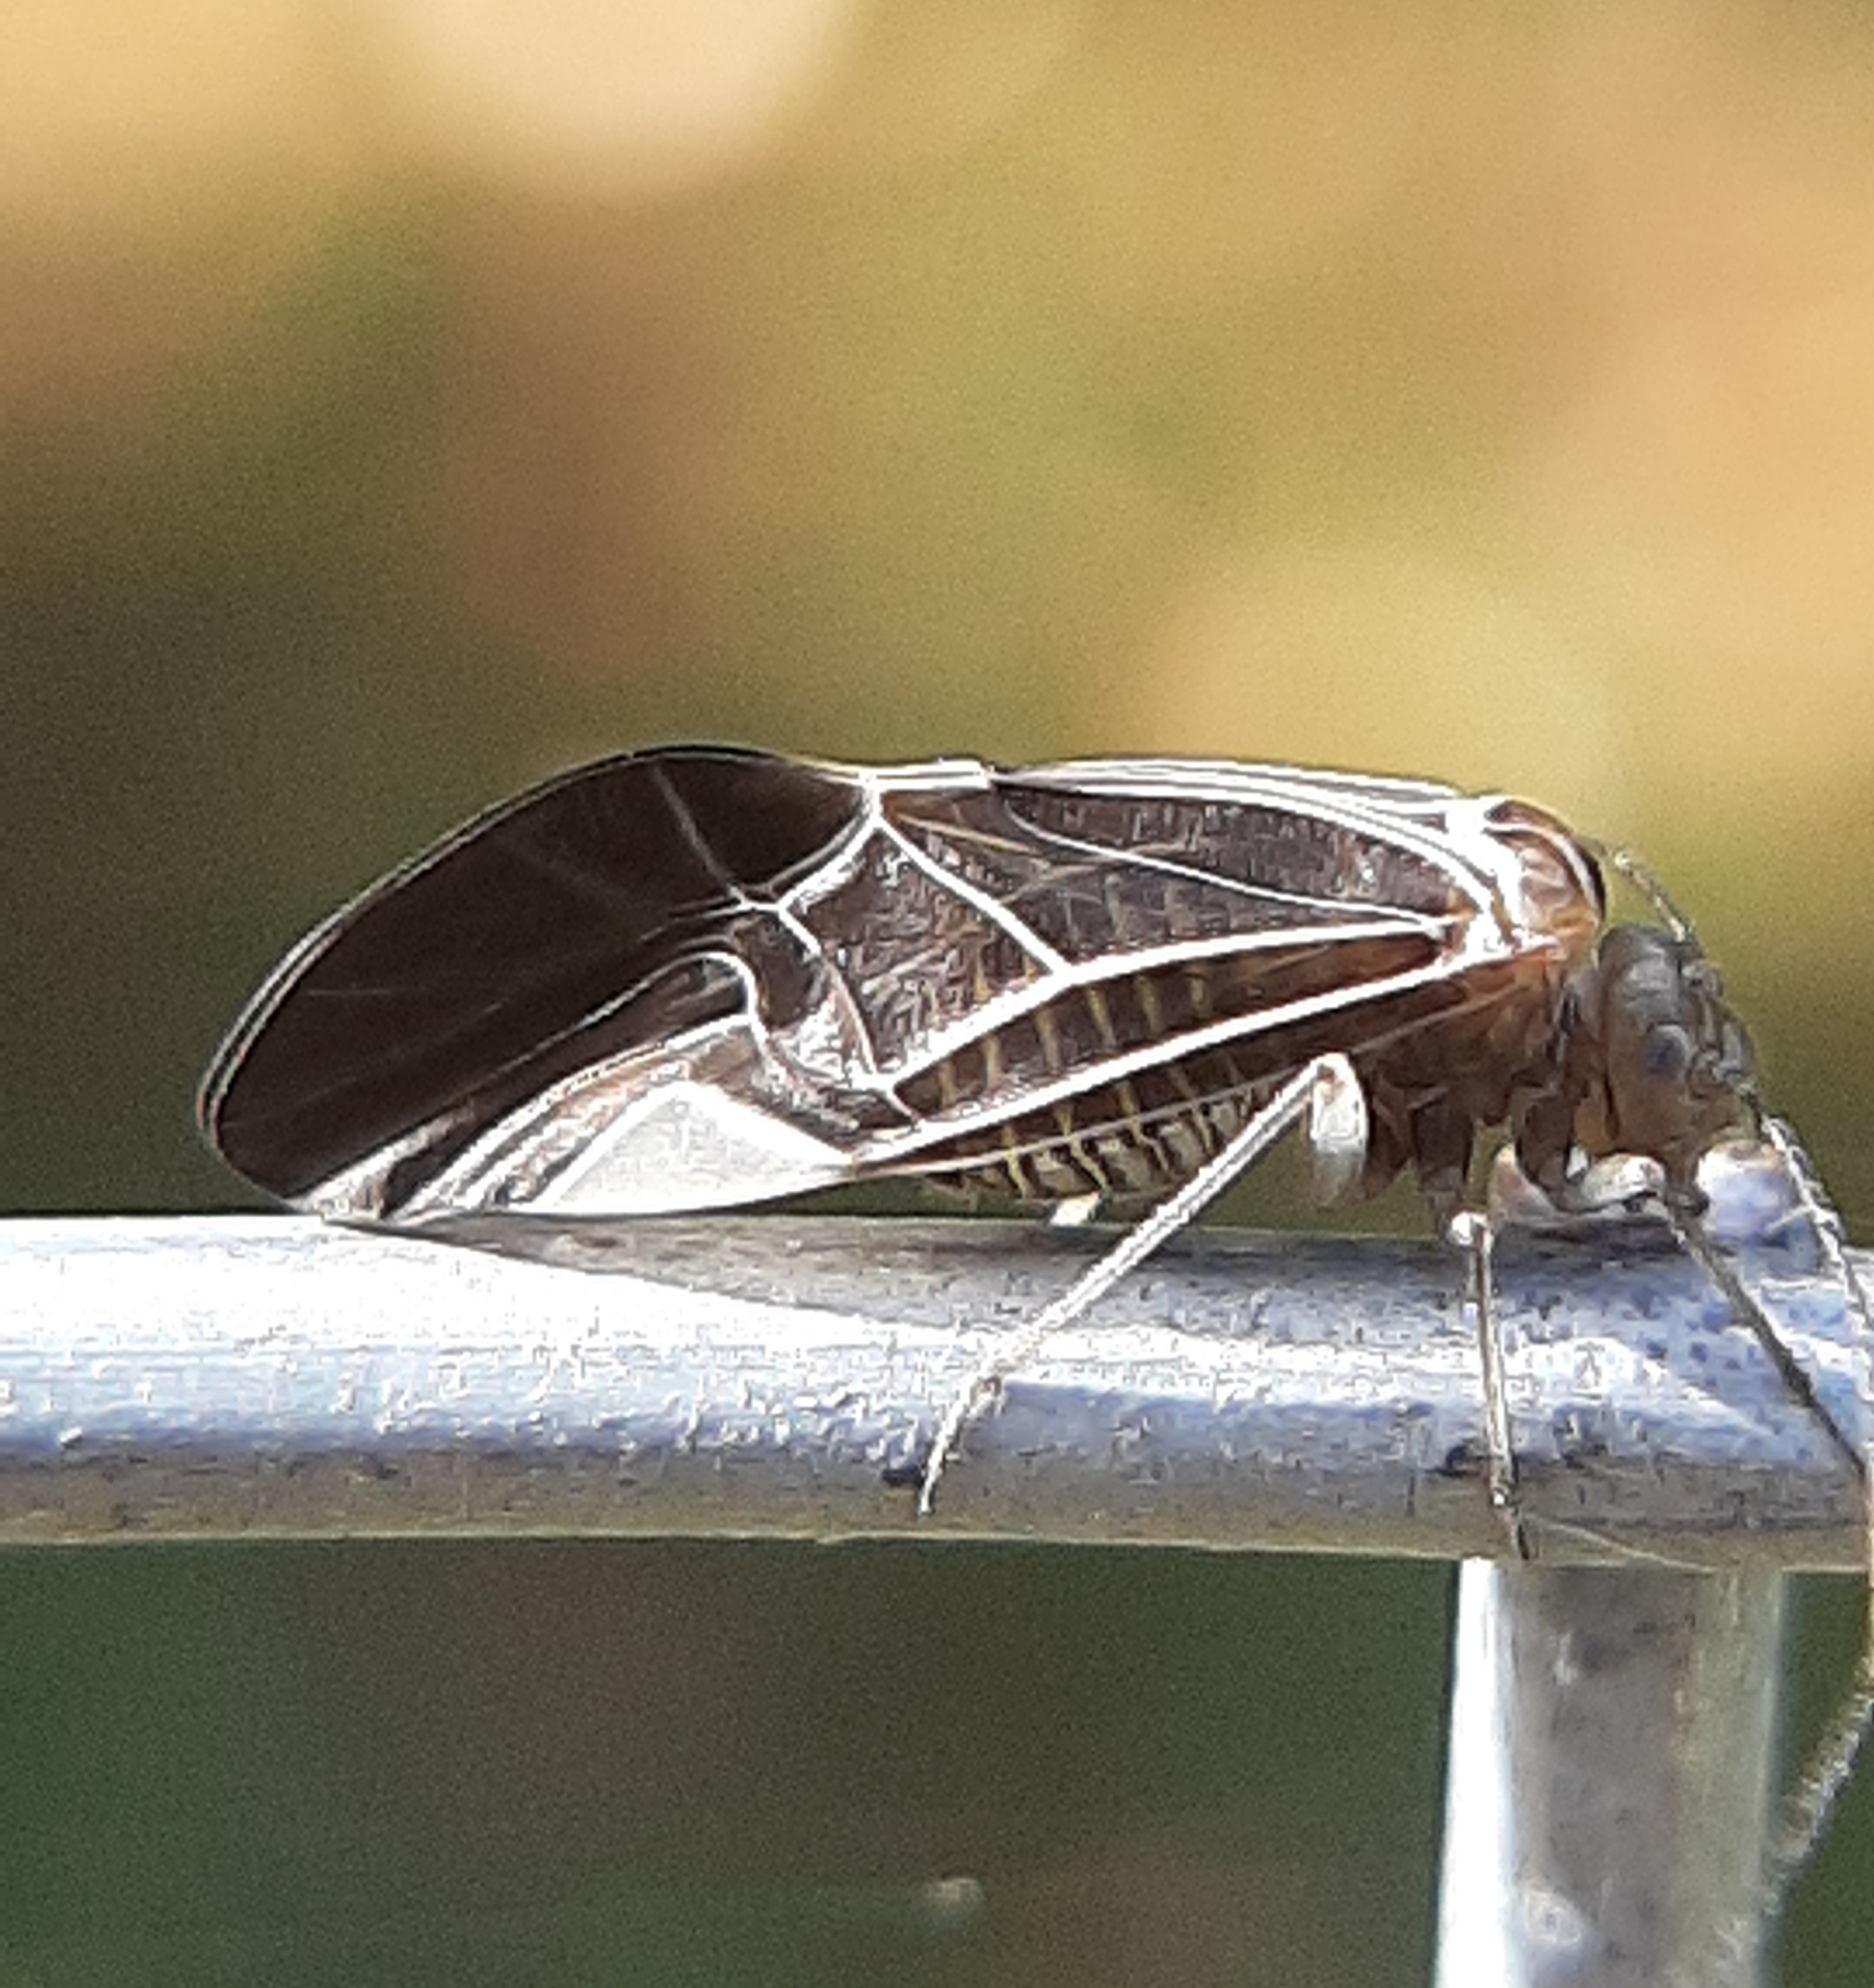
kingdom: Animalia
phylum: Arthropoda
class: Insecta
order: Psocodea
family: Psocidae
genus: Cerastipsocus
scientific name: Cerastipsocus venosus
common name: Tree cattle
